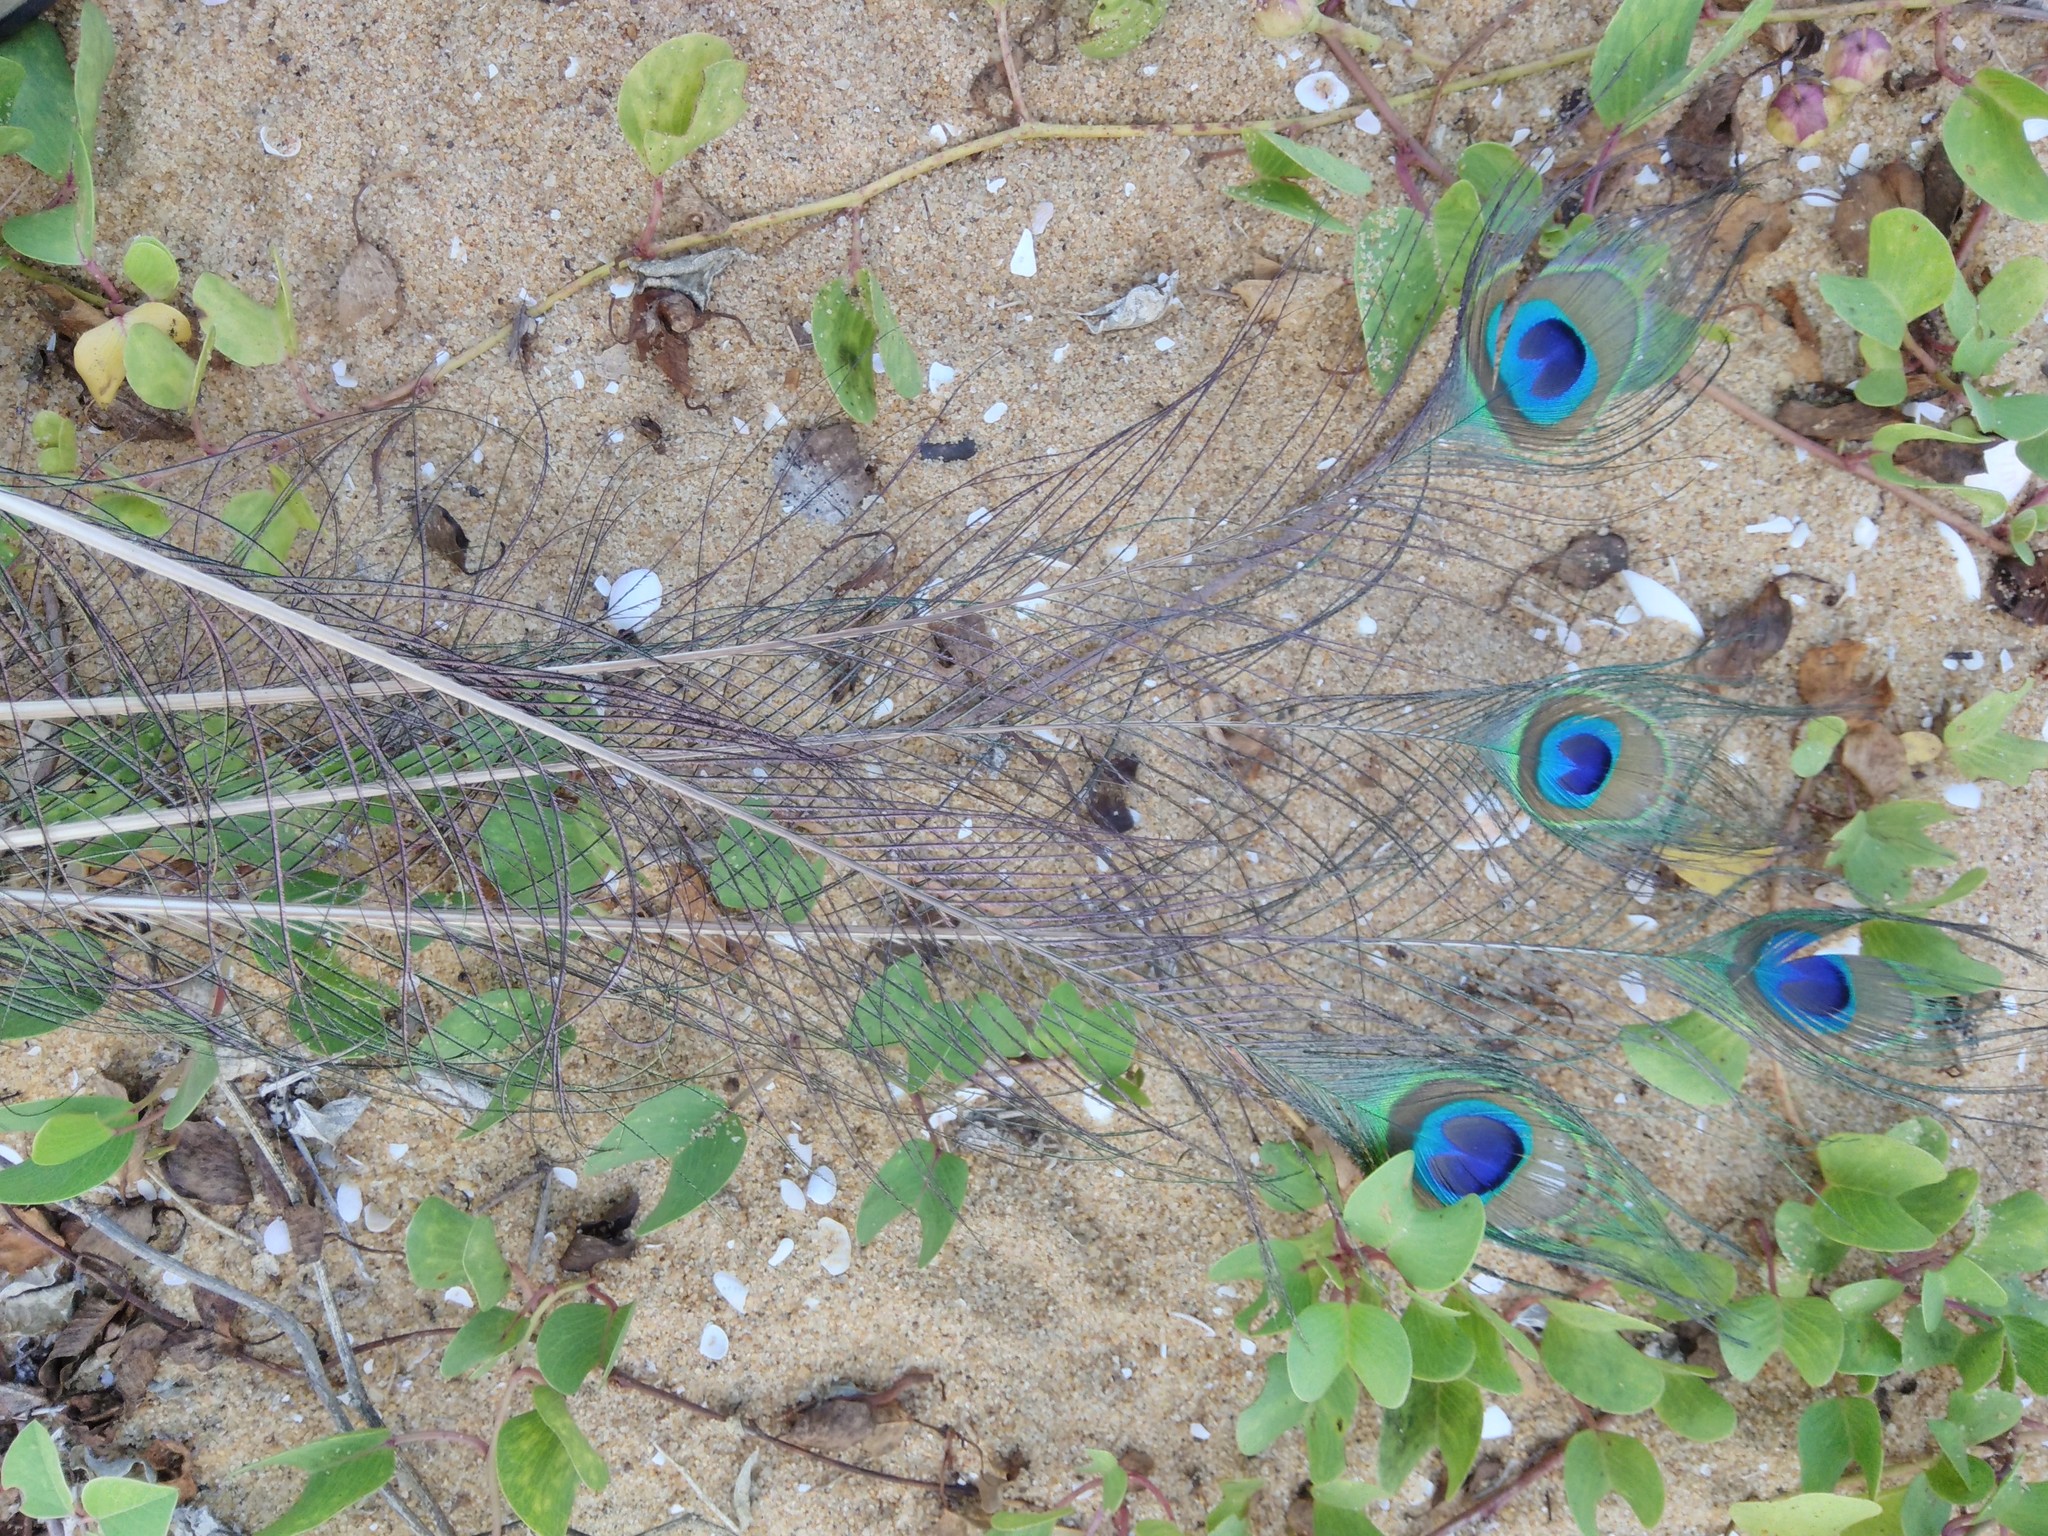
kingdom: Animalia
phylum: Chordata
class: Aves
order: Galliformes
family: Phasianidae
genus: Pavo
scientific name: Pavo cristatus
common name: Indian peafowl
